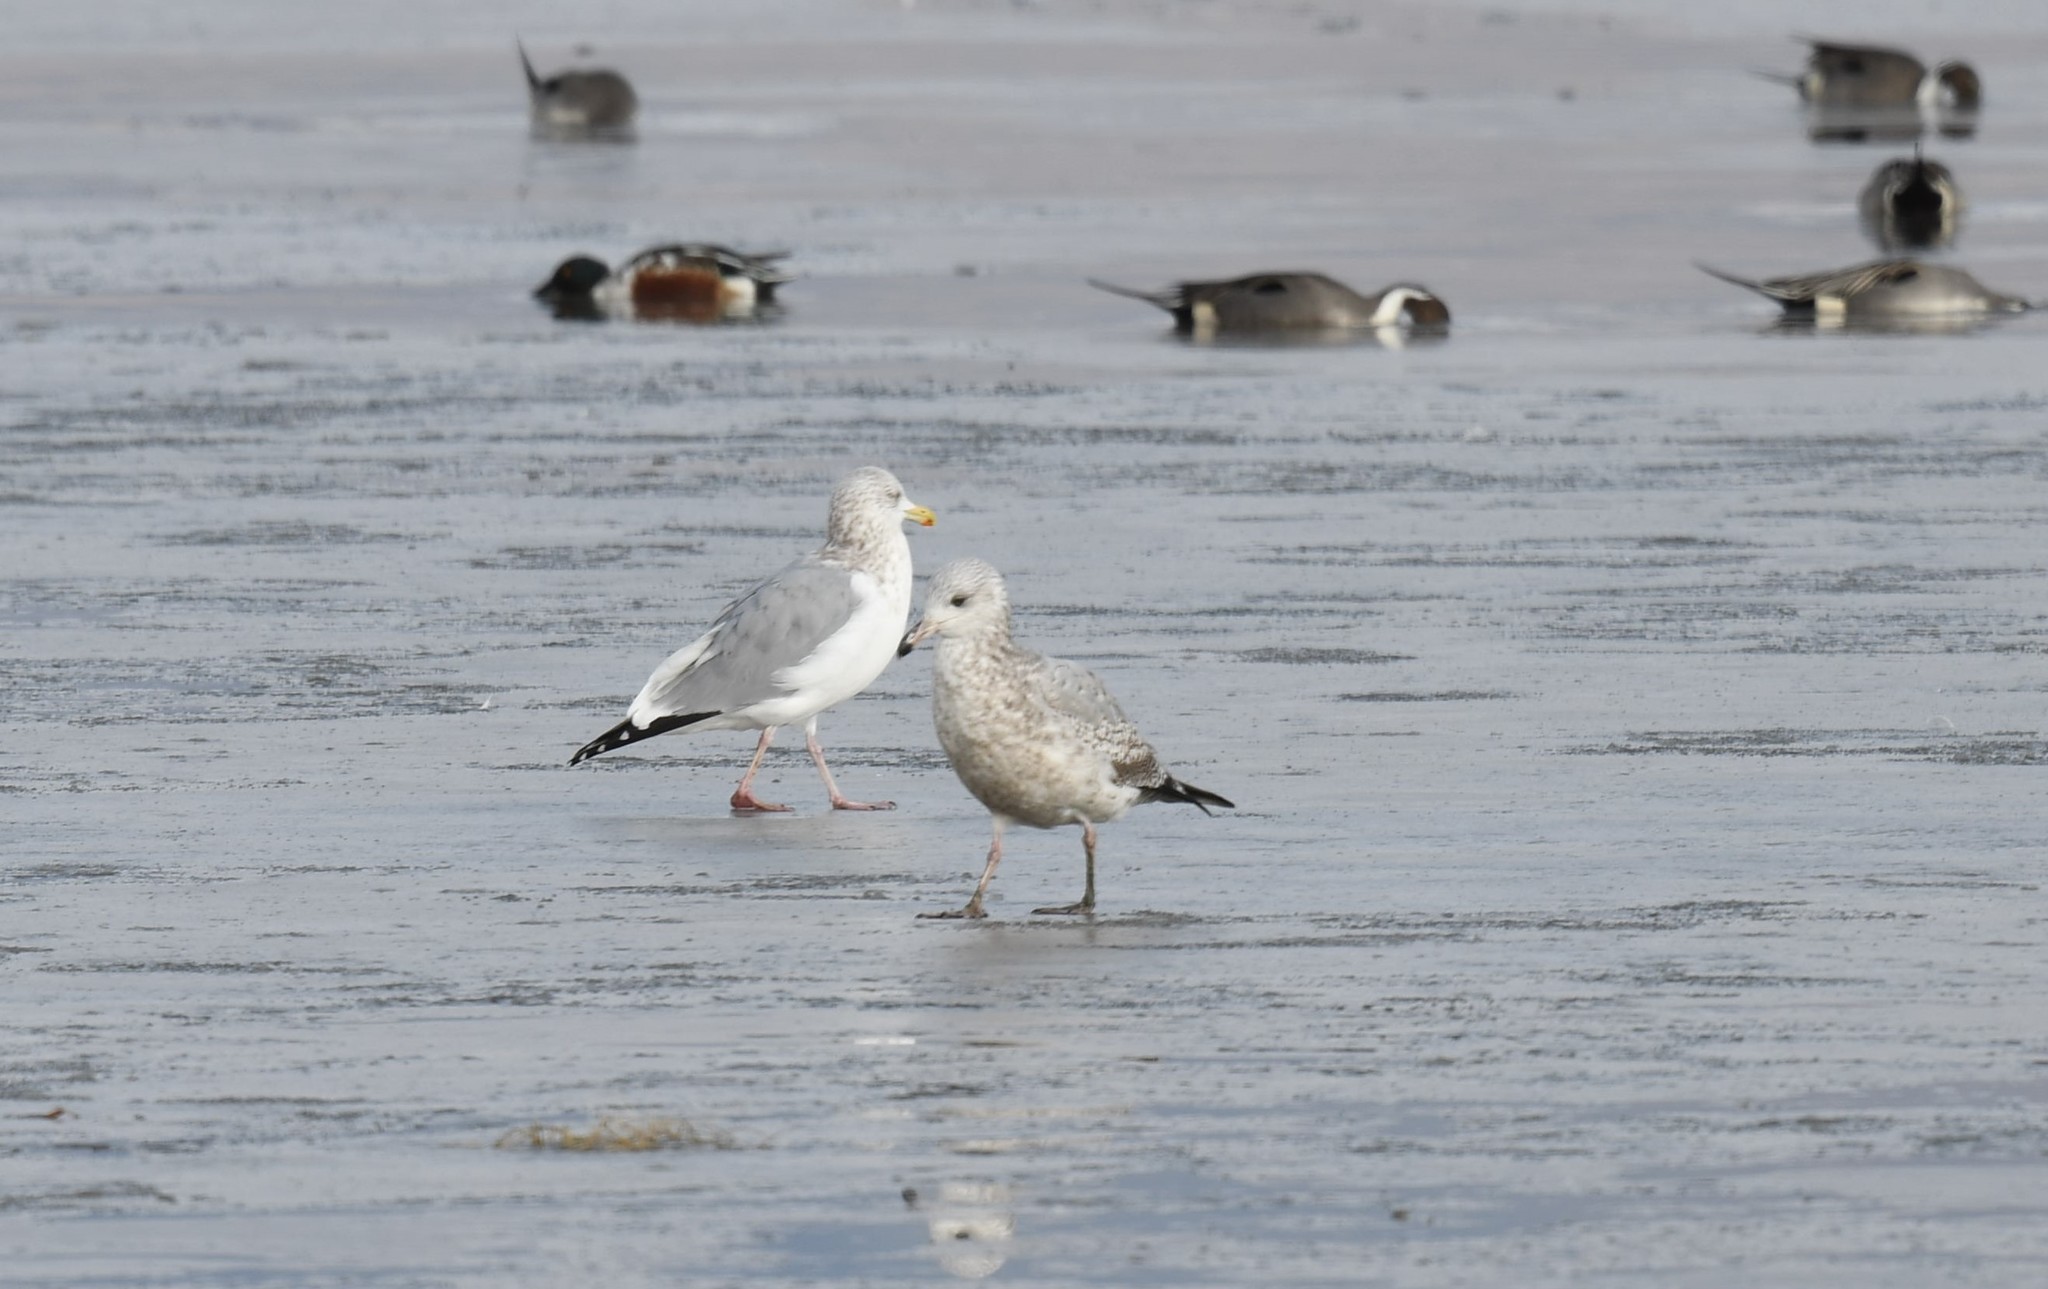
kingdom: Animalia
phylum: Chordata
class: Aves
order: Charadriiformes
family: Laridae
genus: Larus
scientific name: Larus argentatus
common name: Herring gull
